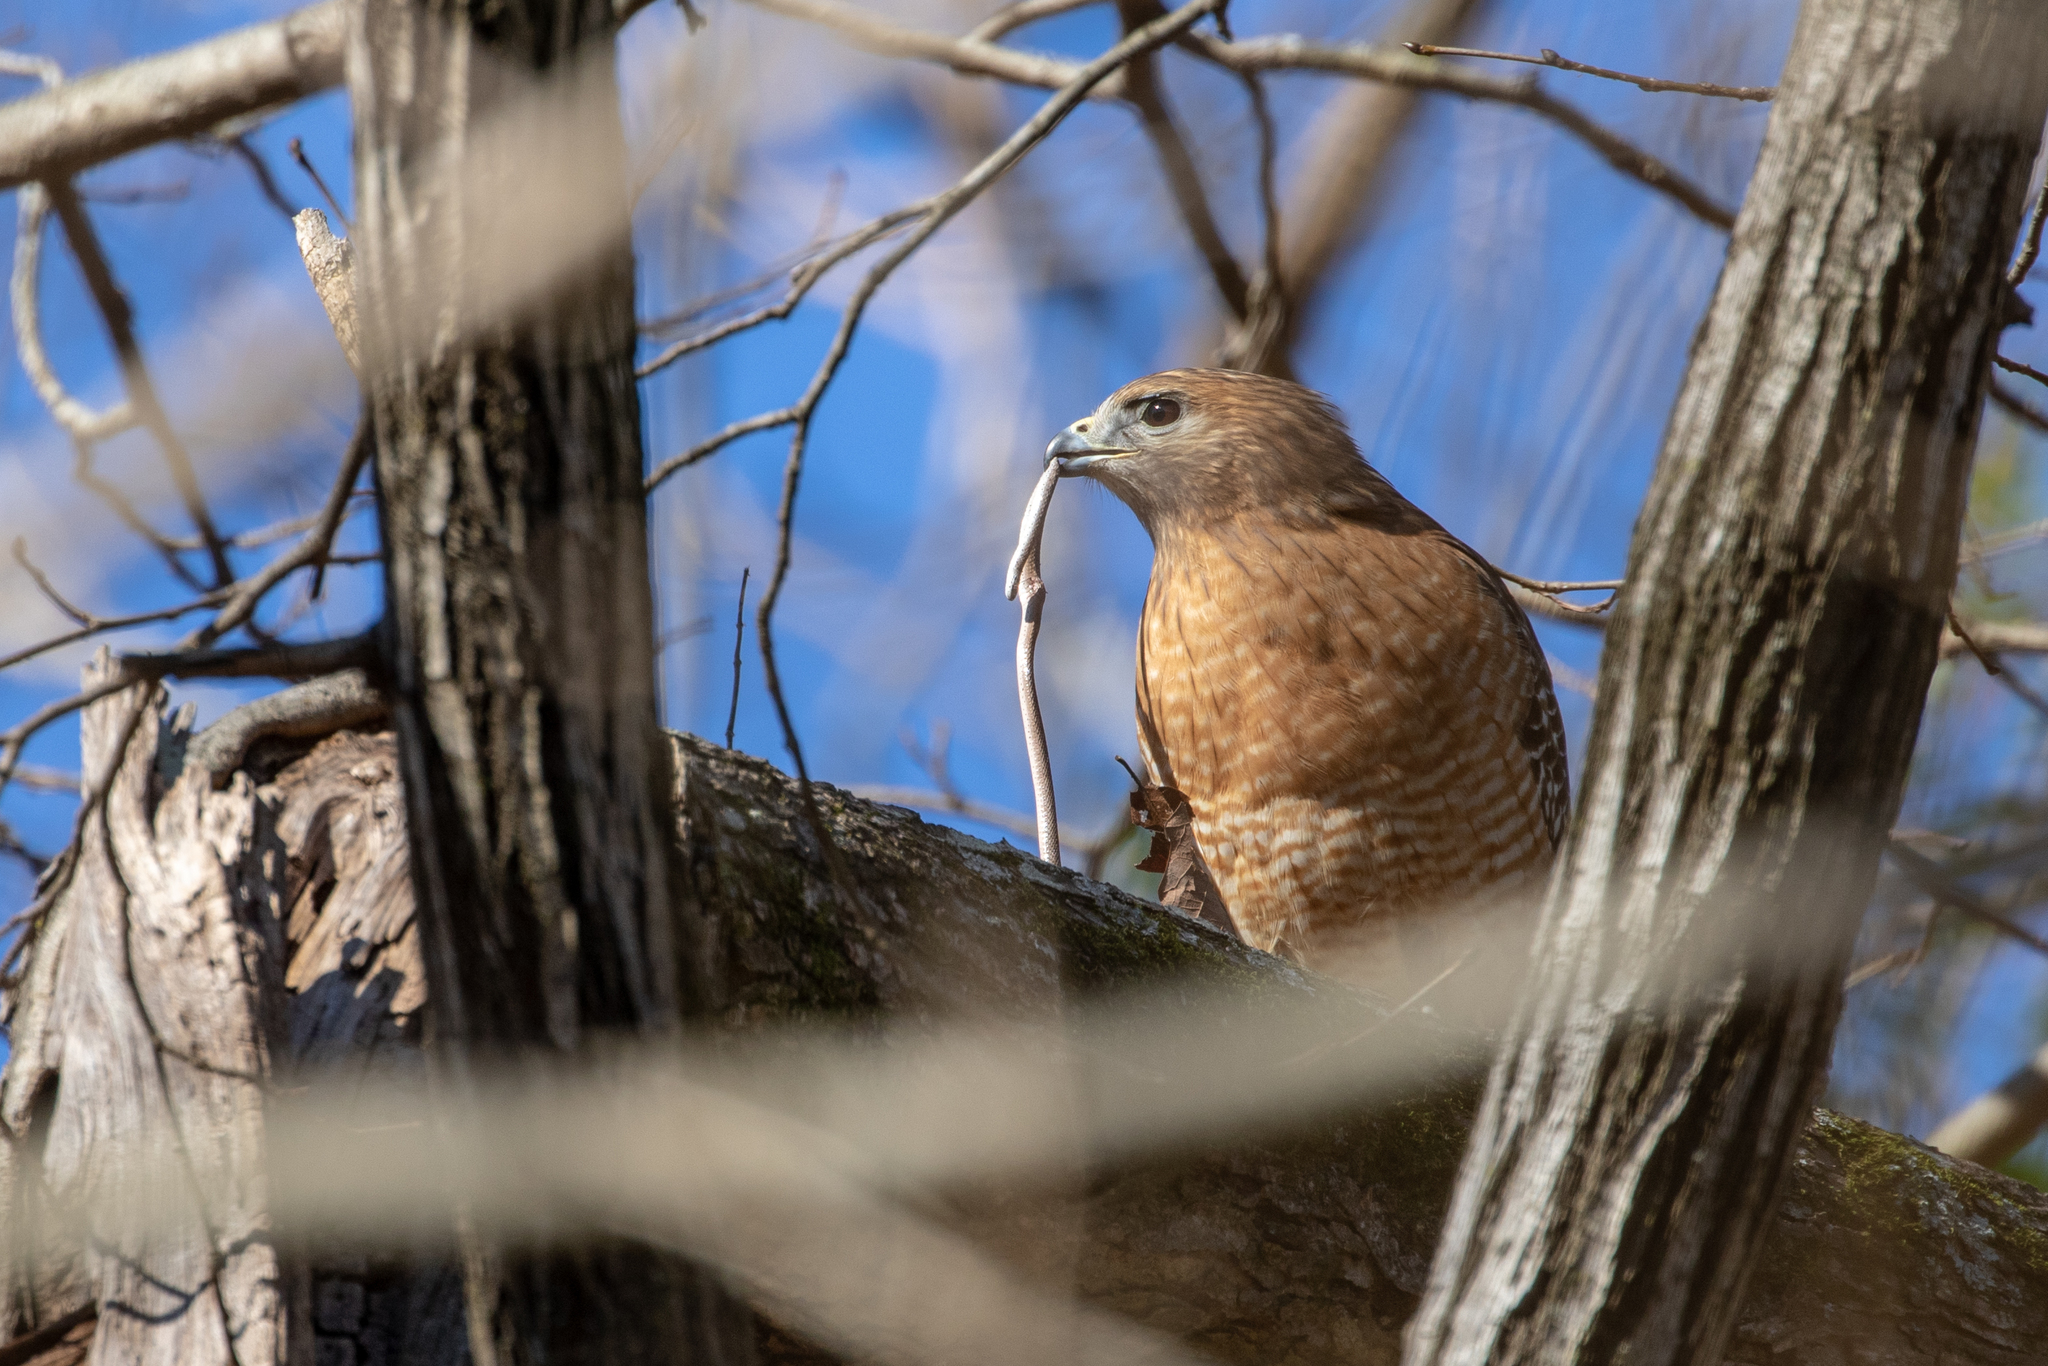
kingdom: Animalia
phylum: Chordata
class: Aves
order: Accipitriformes
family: Accipitridae
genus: Buteo
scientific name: Buteo lineatus
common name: Red-shouldered hawk
